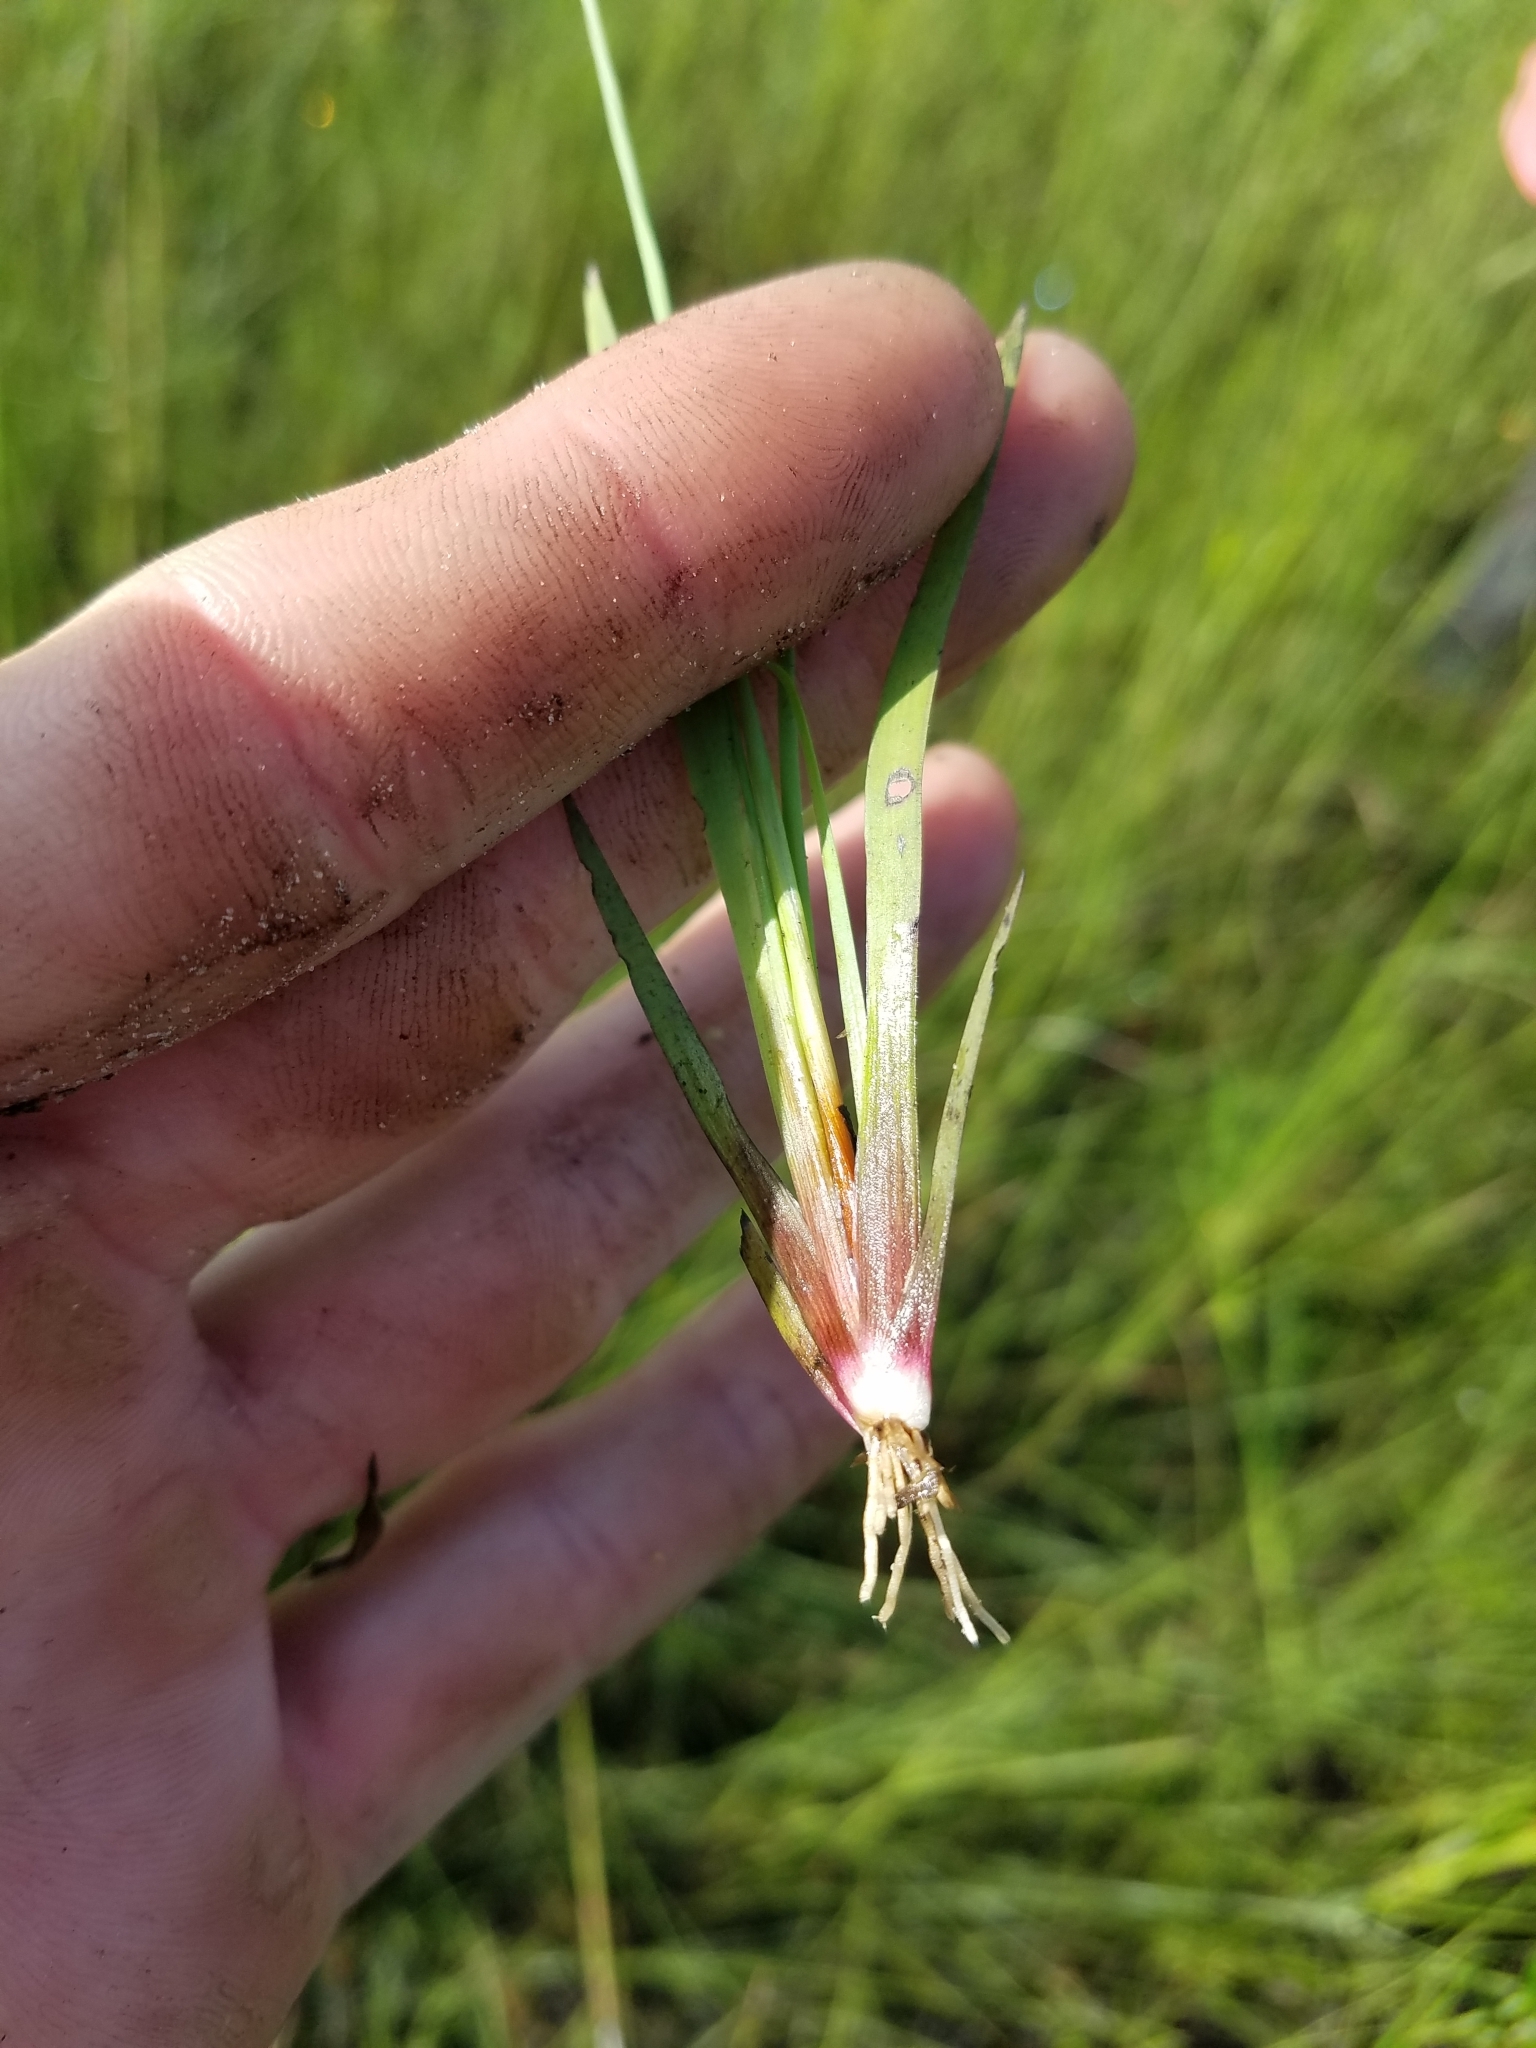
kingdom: Plantae
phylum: Tracheophyta
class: Liliopsida
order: Poales
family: Xyridaceae
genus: Xyris
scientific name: Xyris floridana
